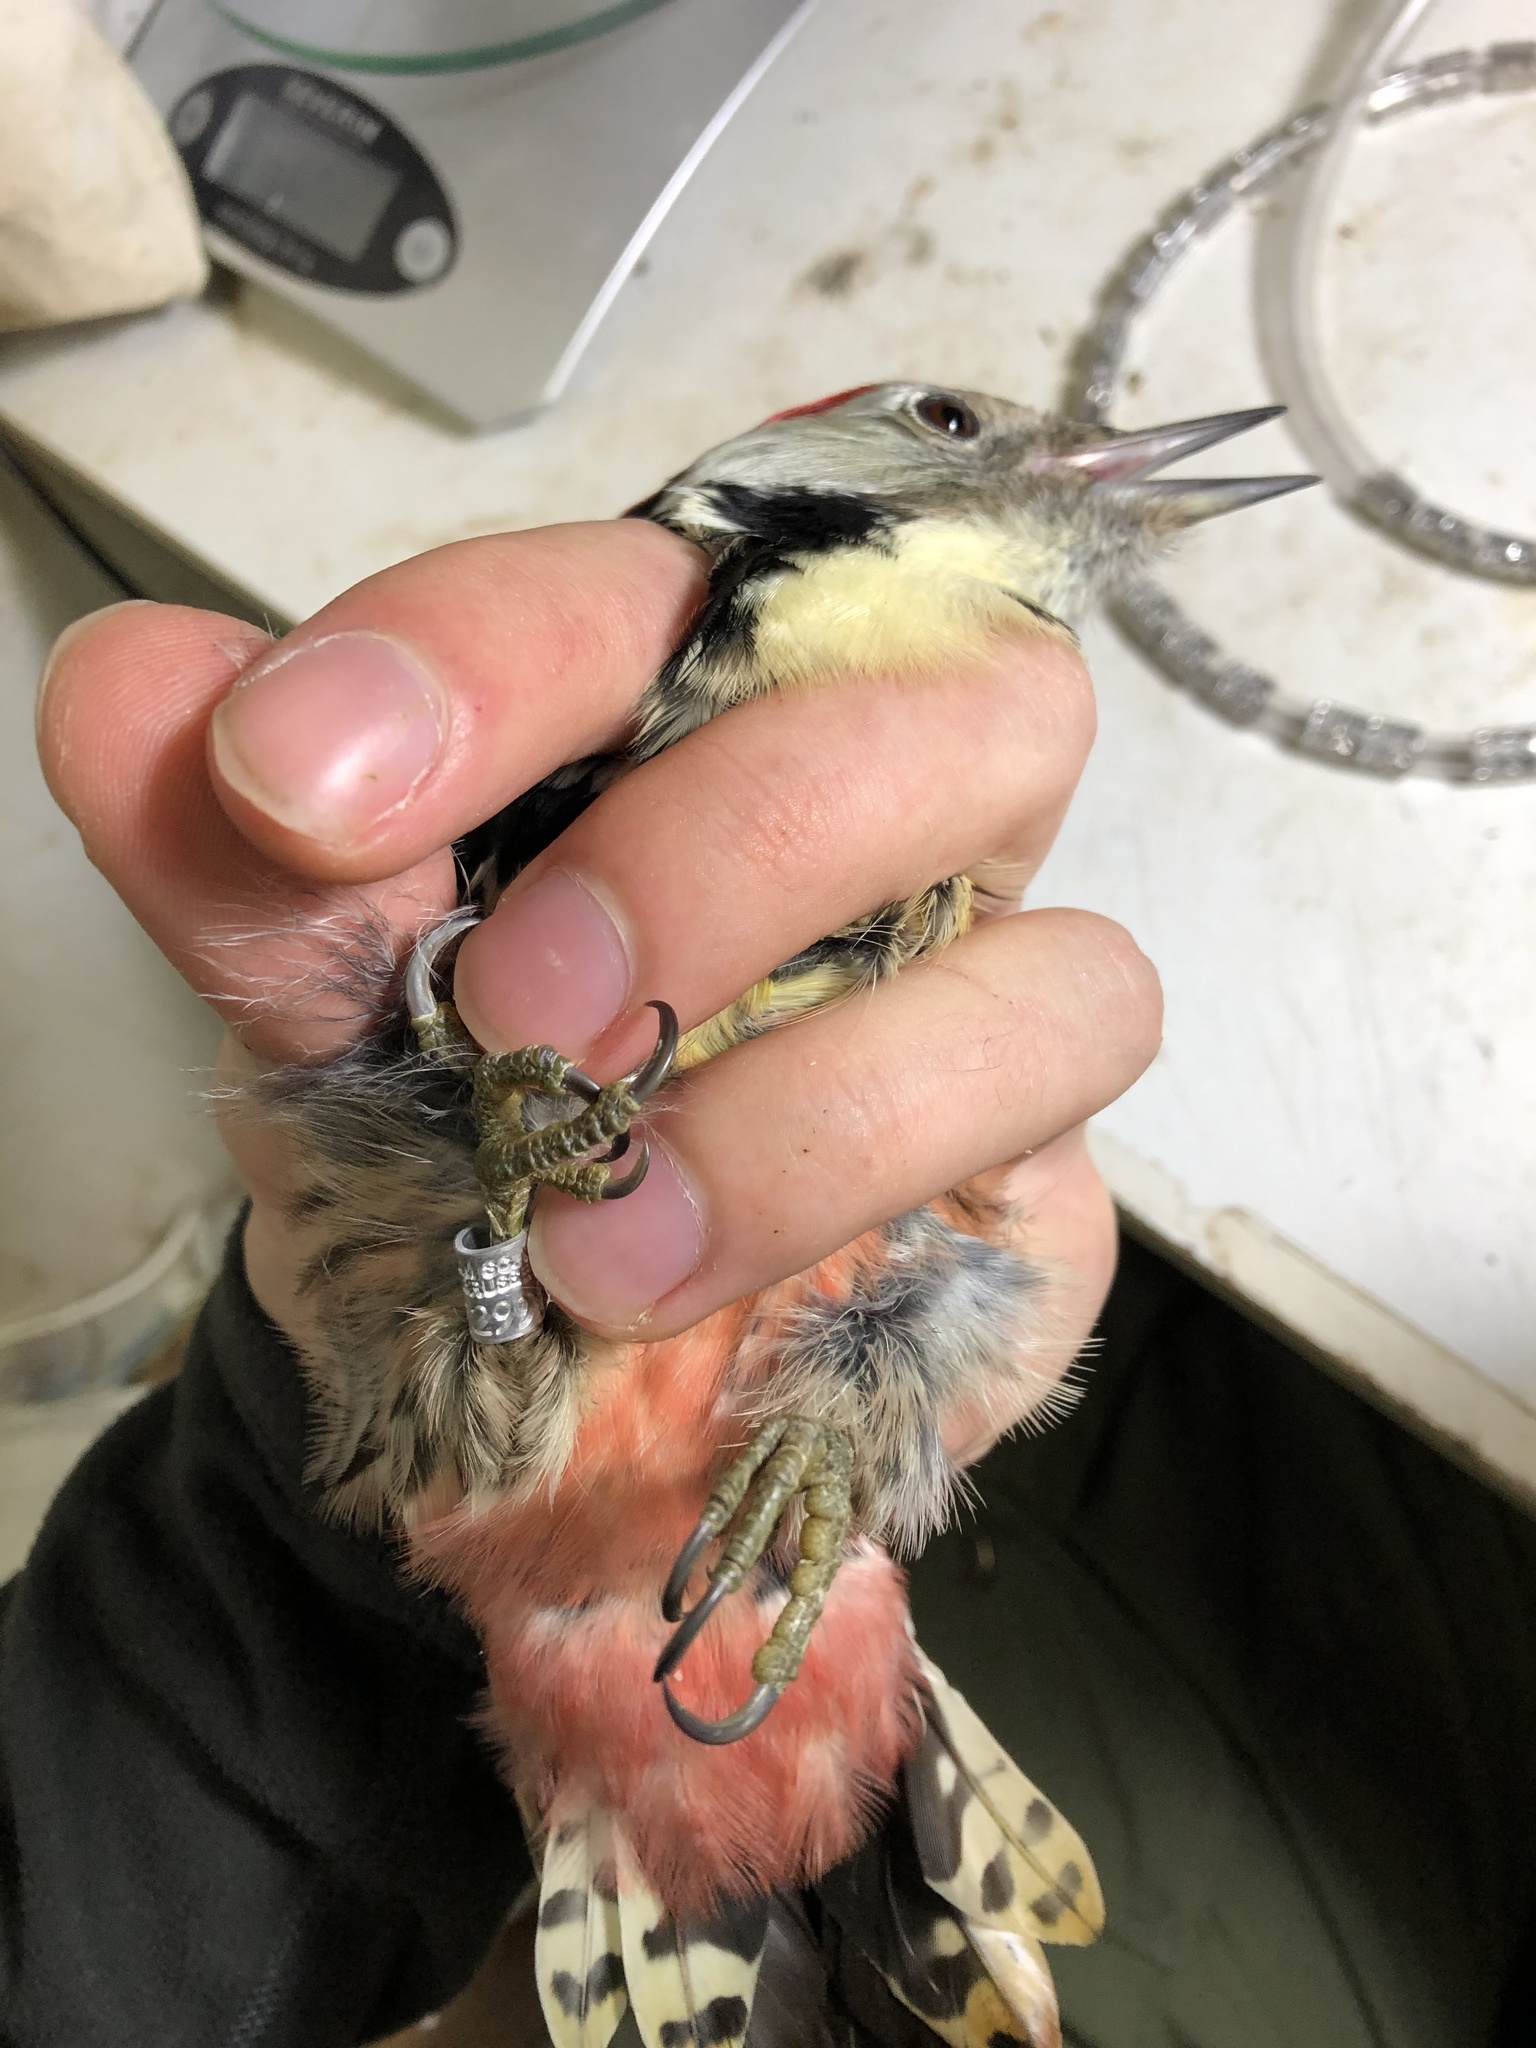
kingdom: Animalia
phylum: Chordata
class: Aves
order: Piciformes
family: Picidae
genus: Dendrocoptes
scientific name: Dendrocoptes medius
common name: Middle spotted woodpecker
